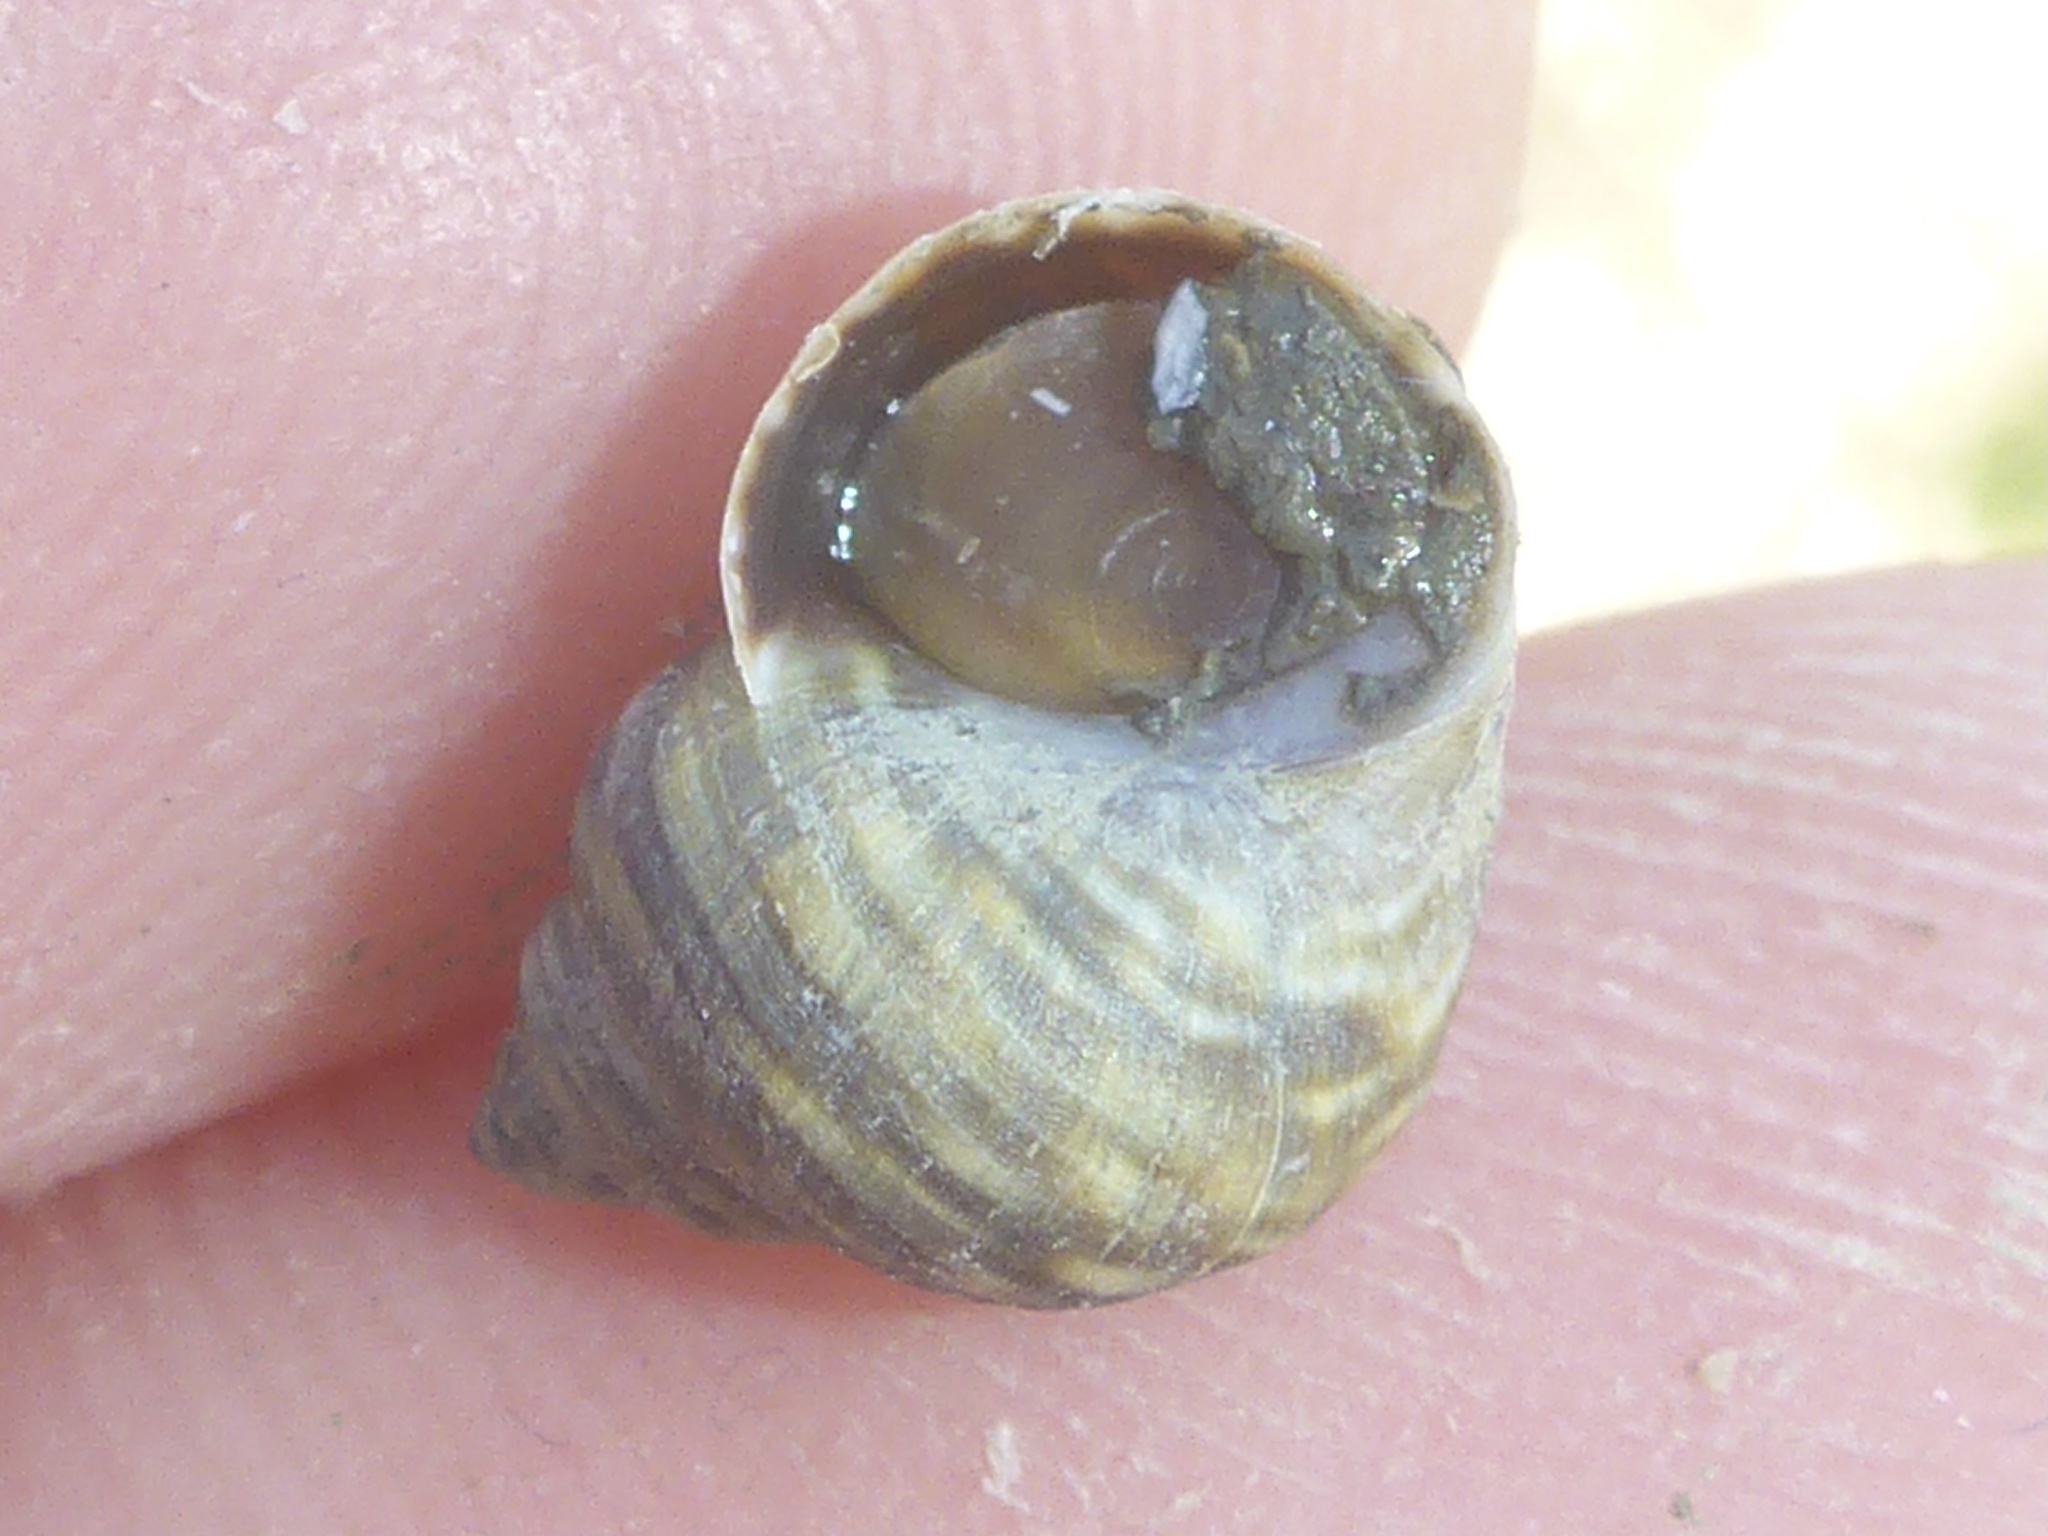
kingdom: Animalia
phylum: Mollusca
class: Gastropoda
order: Littorinimorpha
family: Littorinidae
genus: Littorina
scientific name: Littorina saxatilis
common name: Black-lined periwinkle
